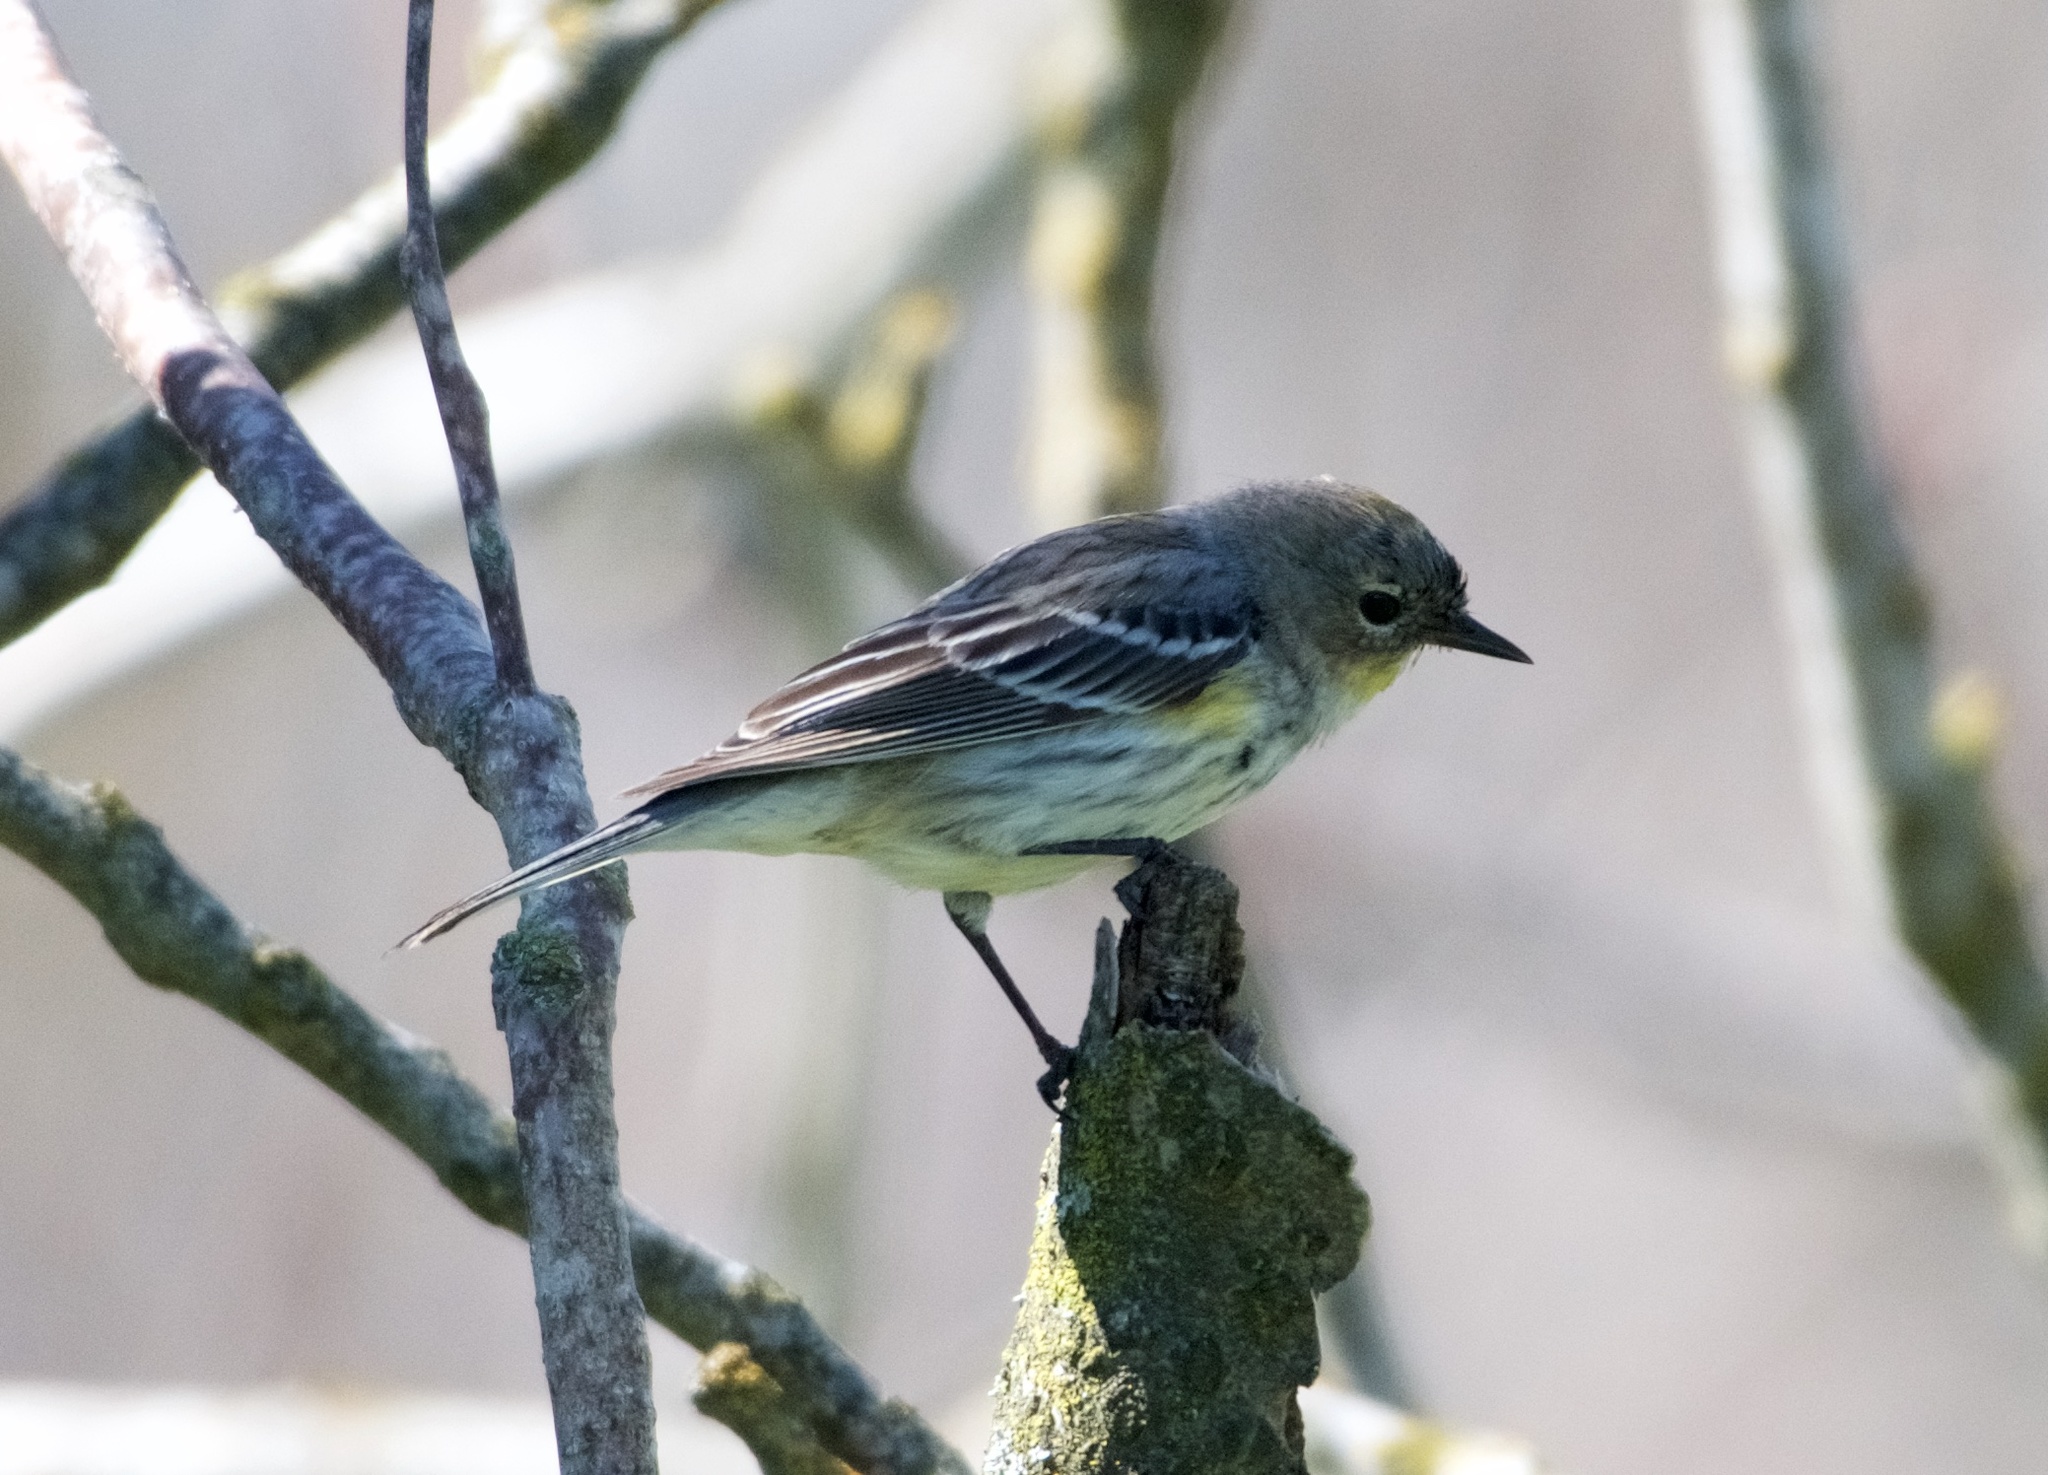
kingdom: Animalia
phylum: Chordata
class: Aves
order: Passeriformes
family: Parulidae
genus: Setophaga
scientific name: Setophaga coronata
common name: Myrtle warbler
